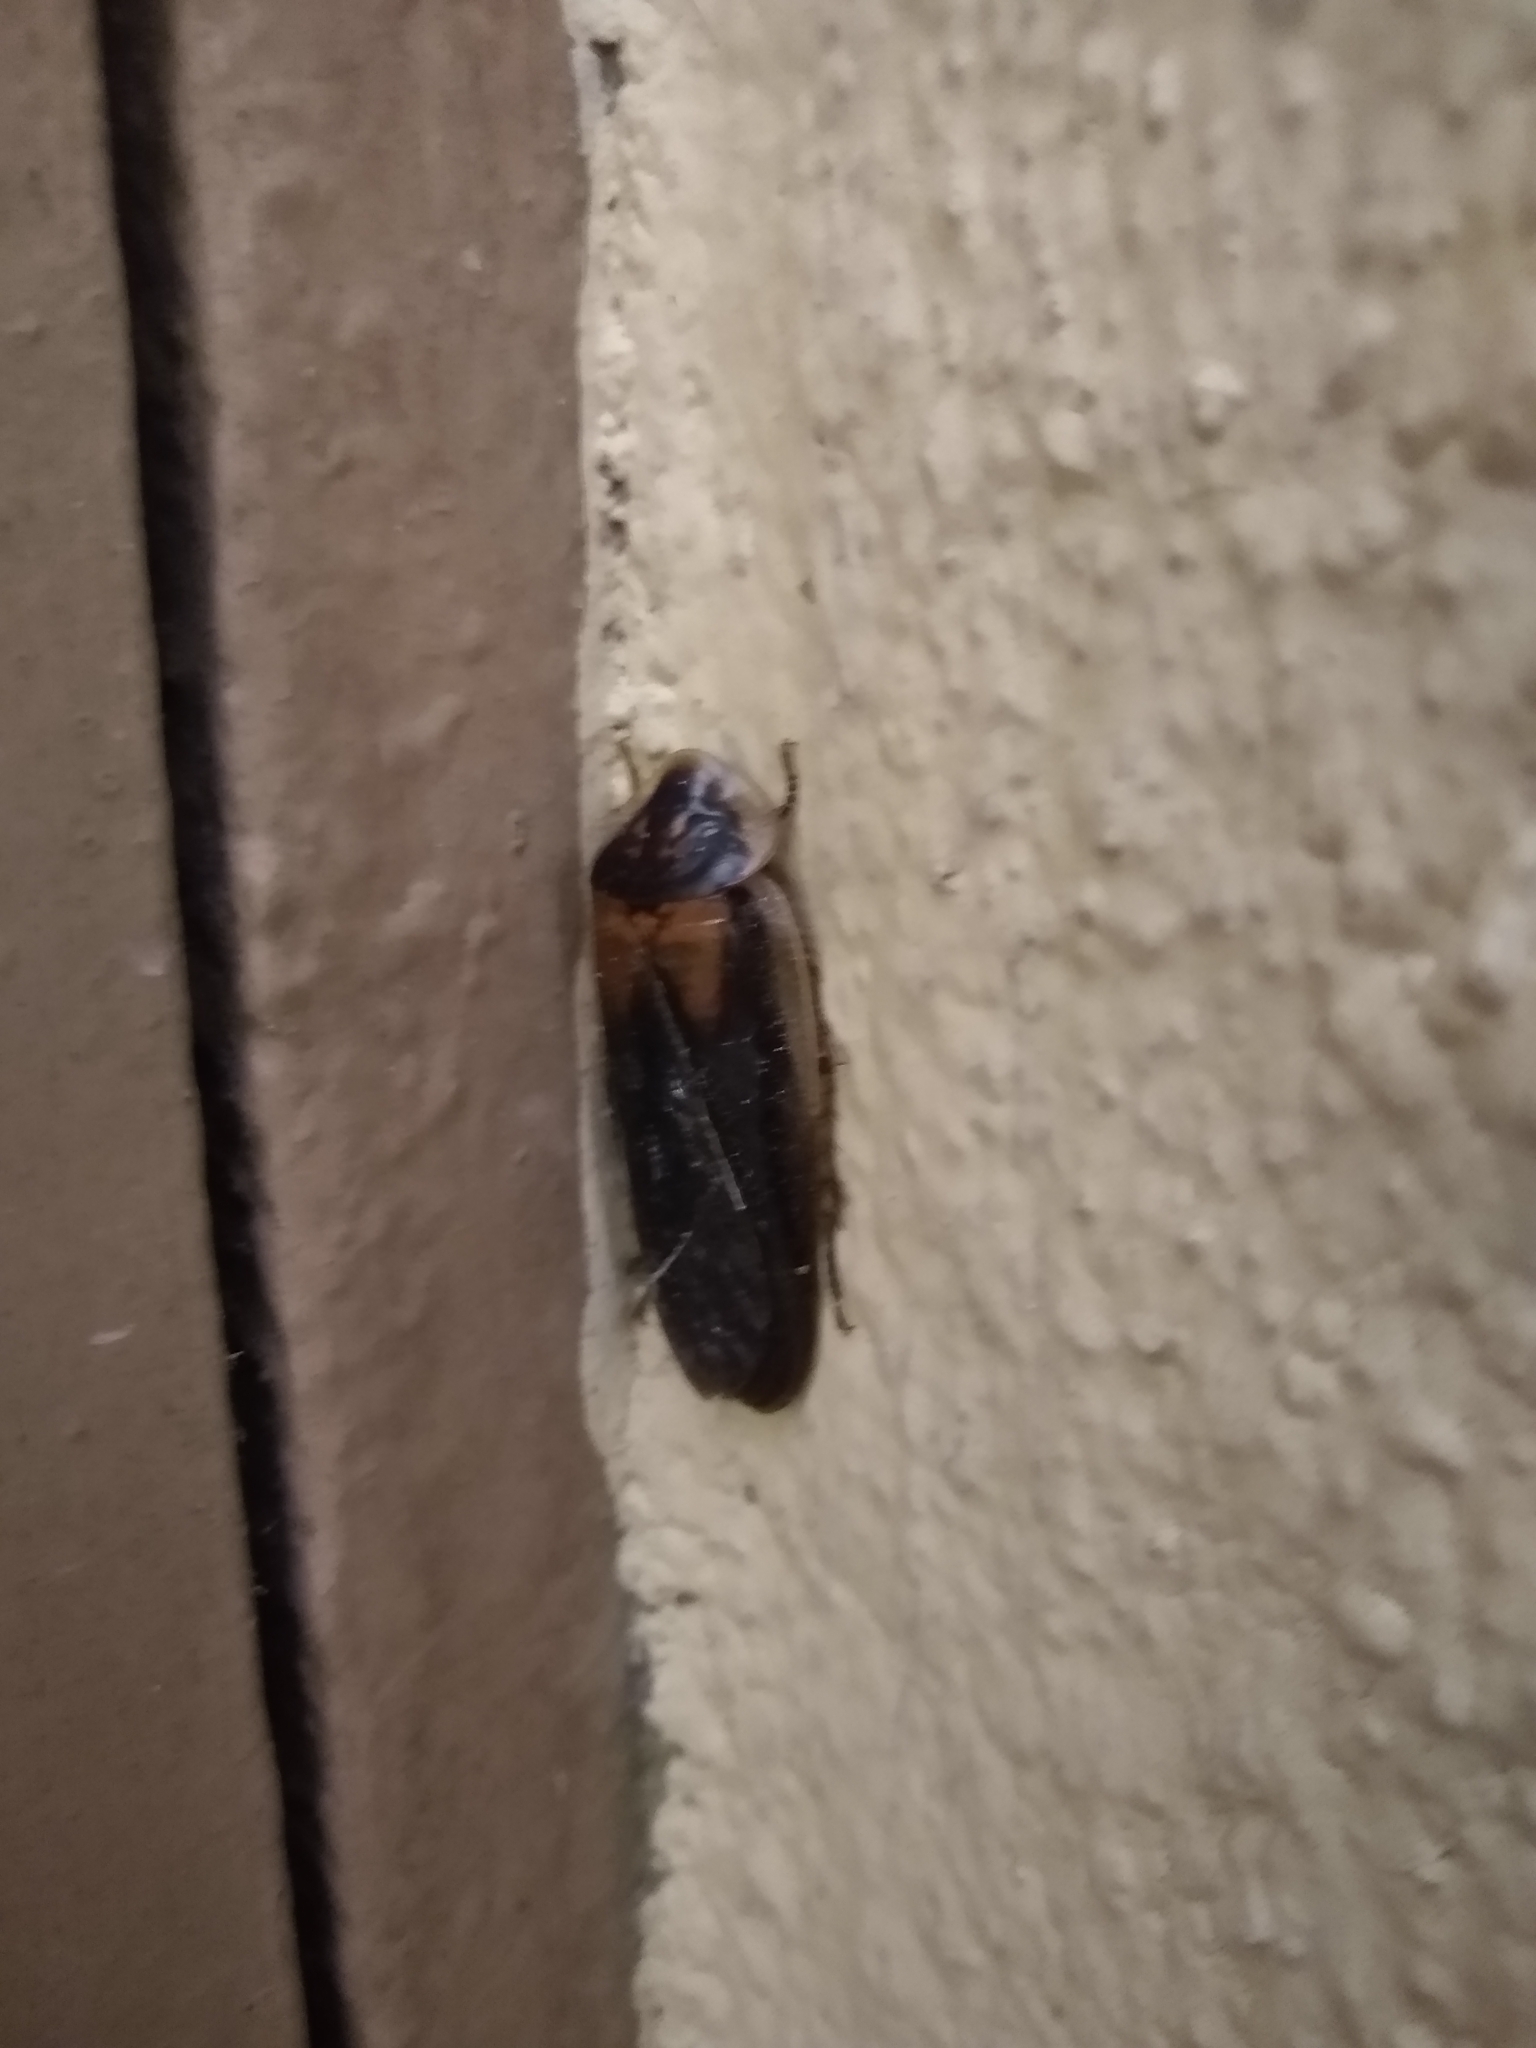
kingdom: Animalia
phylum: Arthropoda
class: Insecta
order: Blattodea
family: Blaberidae
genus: Blaptica
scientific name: Blaptica dubia
